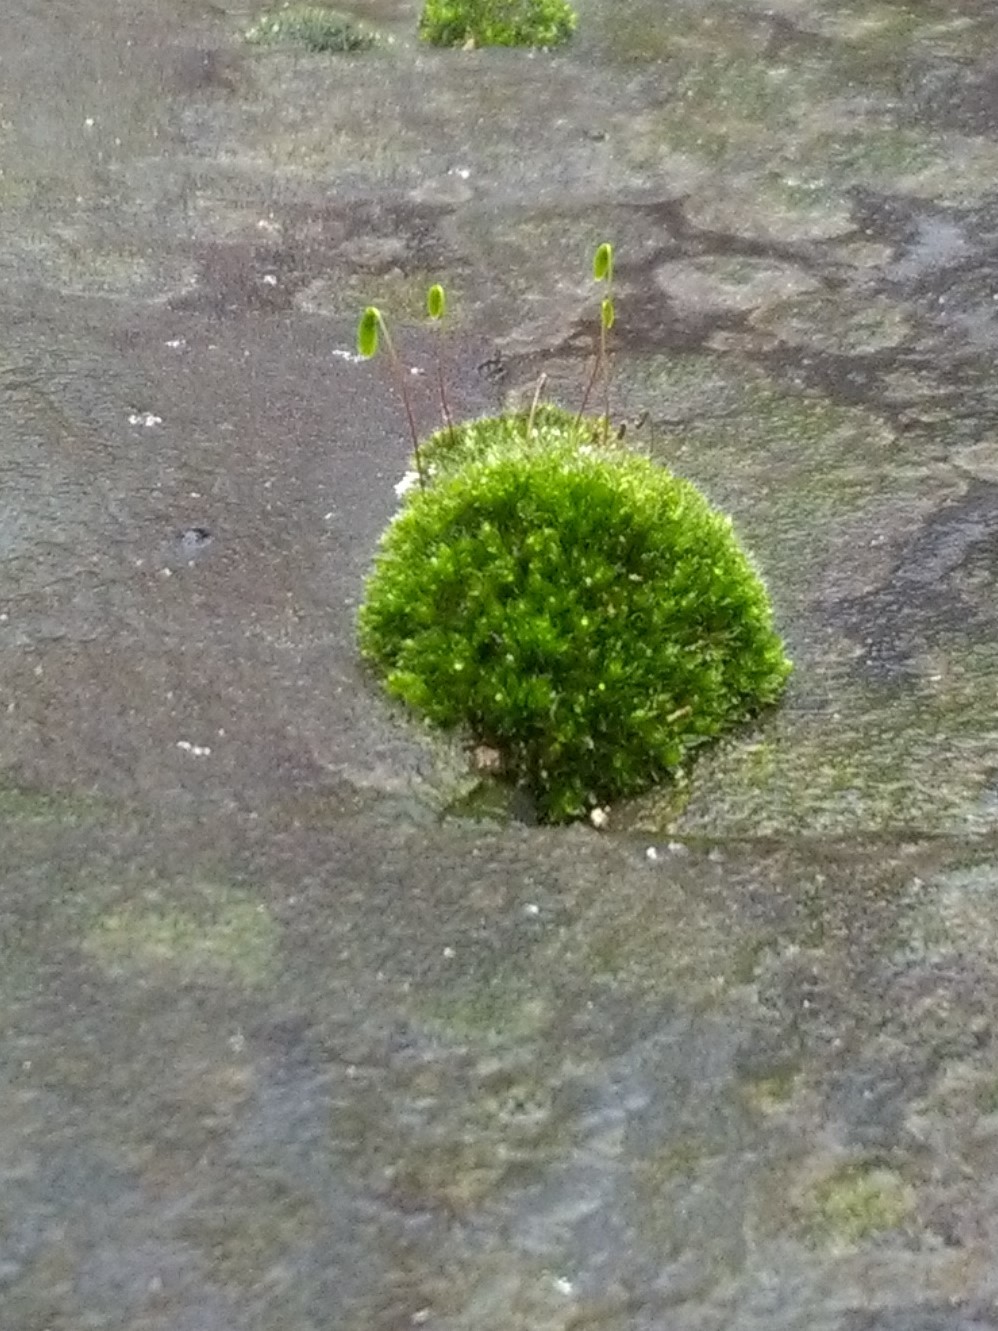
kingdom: Plantae
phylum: Bryophyta
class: Bryopsida
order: Bryales
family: Bryaceae
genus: Rosulabryum
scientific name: Rosulabryum capillare
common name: Capillary thread-moss
